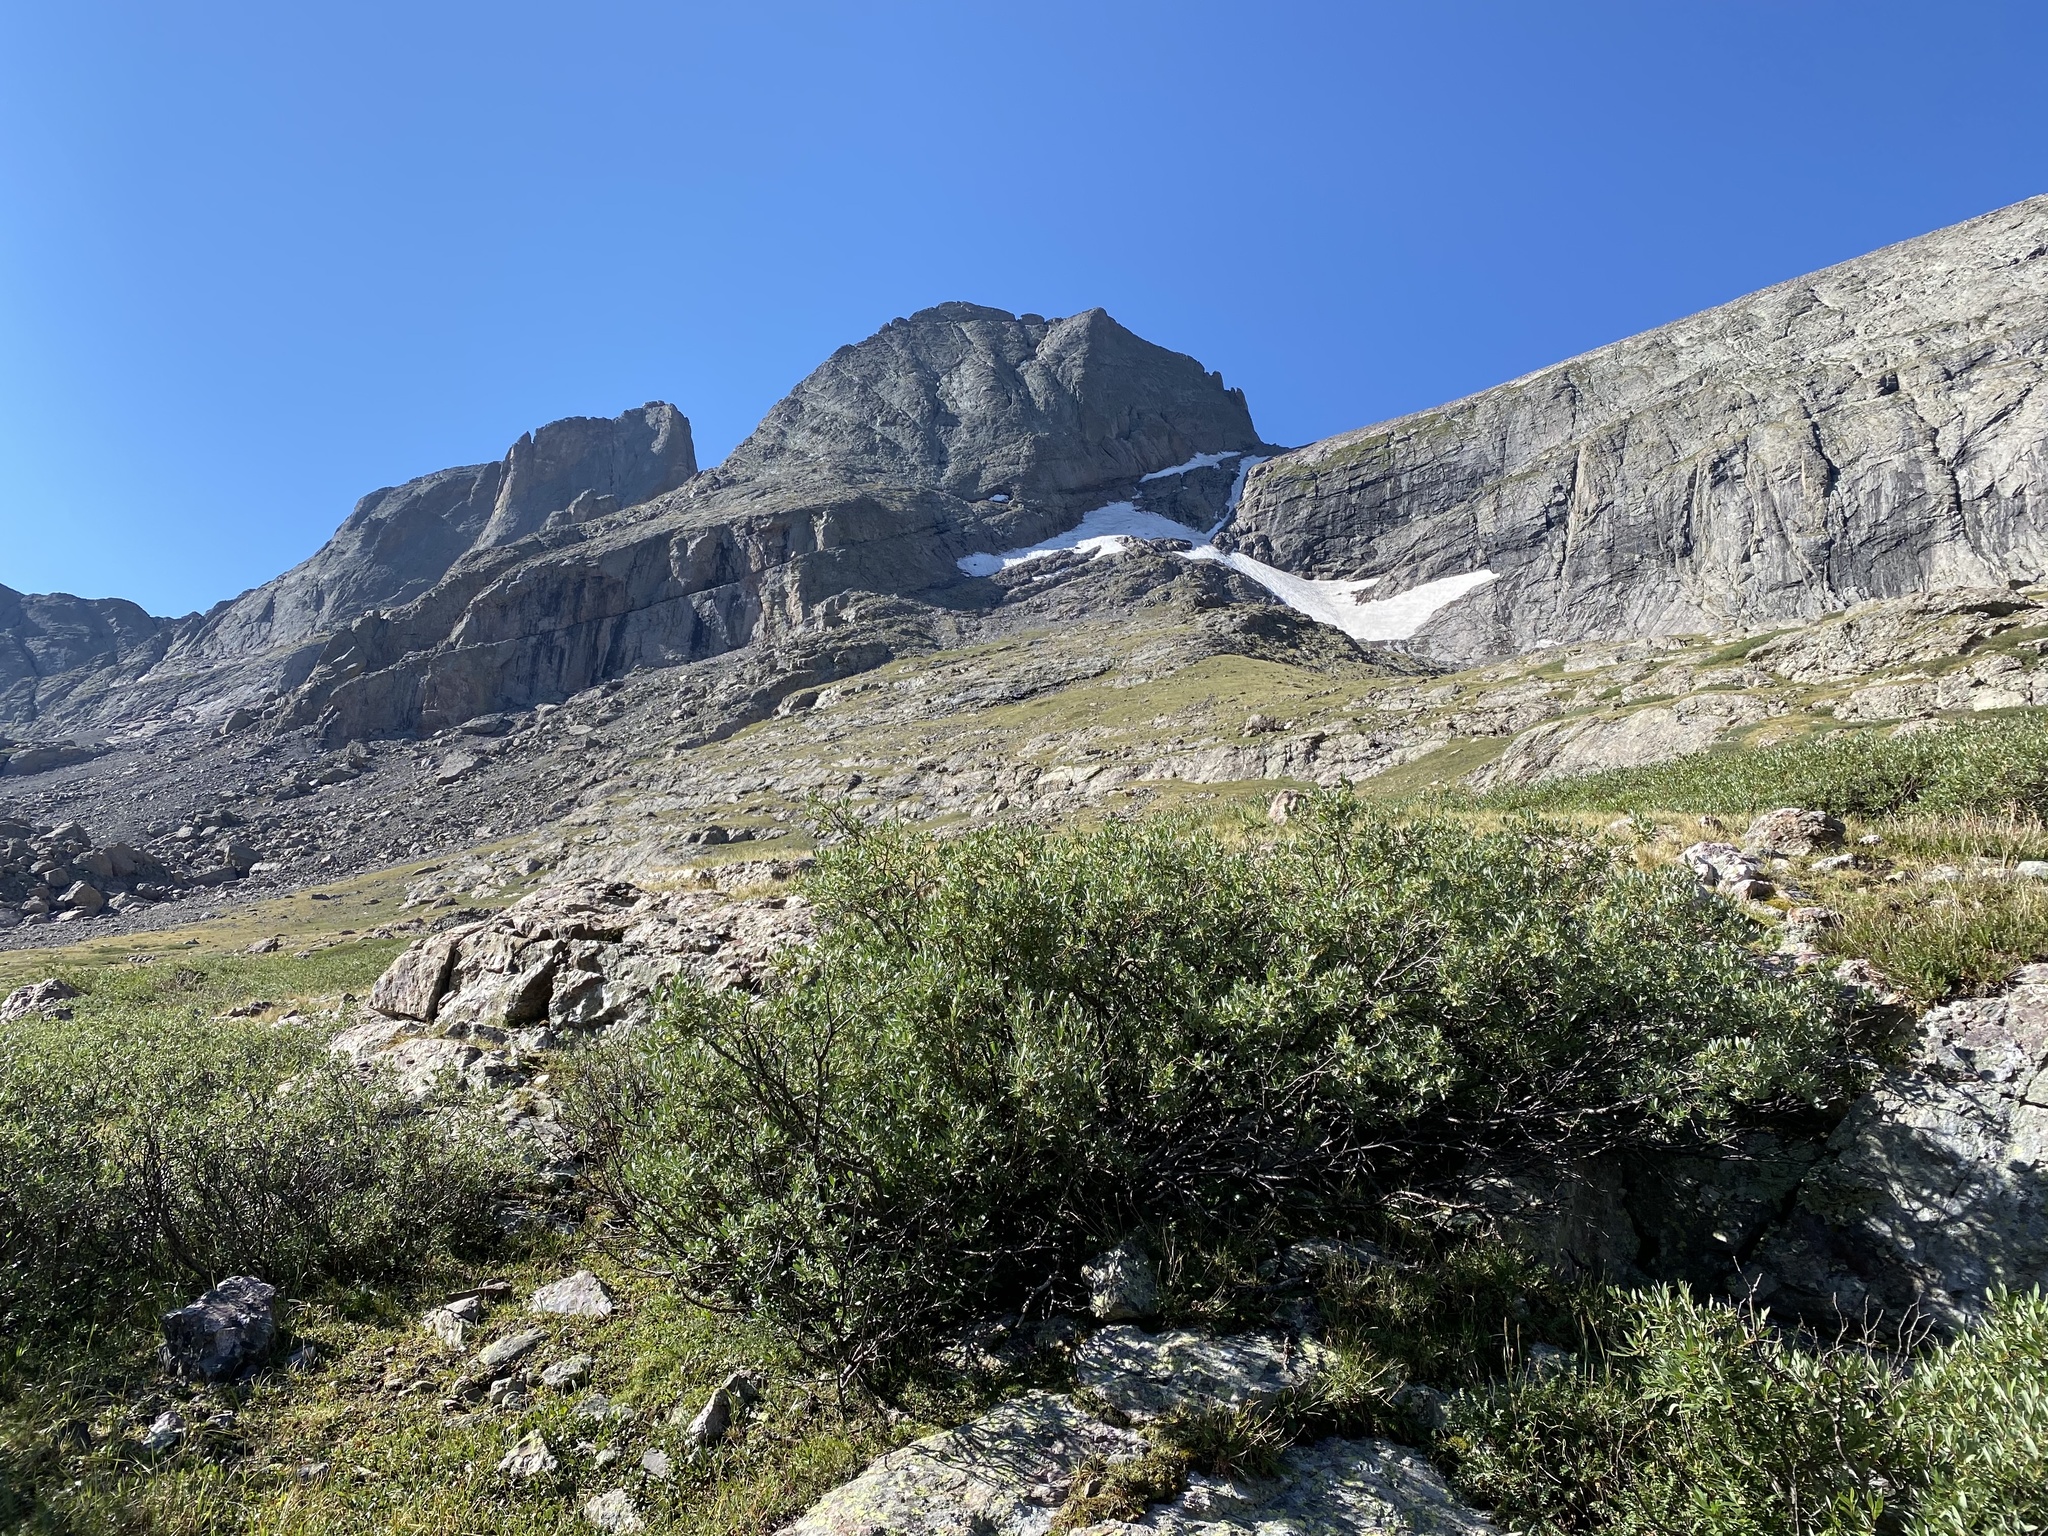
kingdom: Plantae
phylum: Tracheophyta
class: Magnoliopsida
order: Malpighiales
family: Salicaceae
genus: Salix
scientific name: Salix
